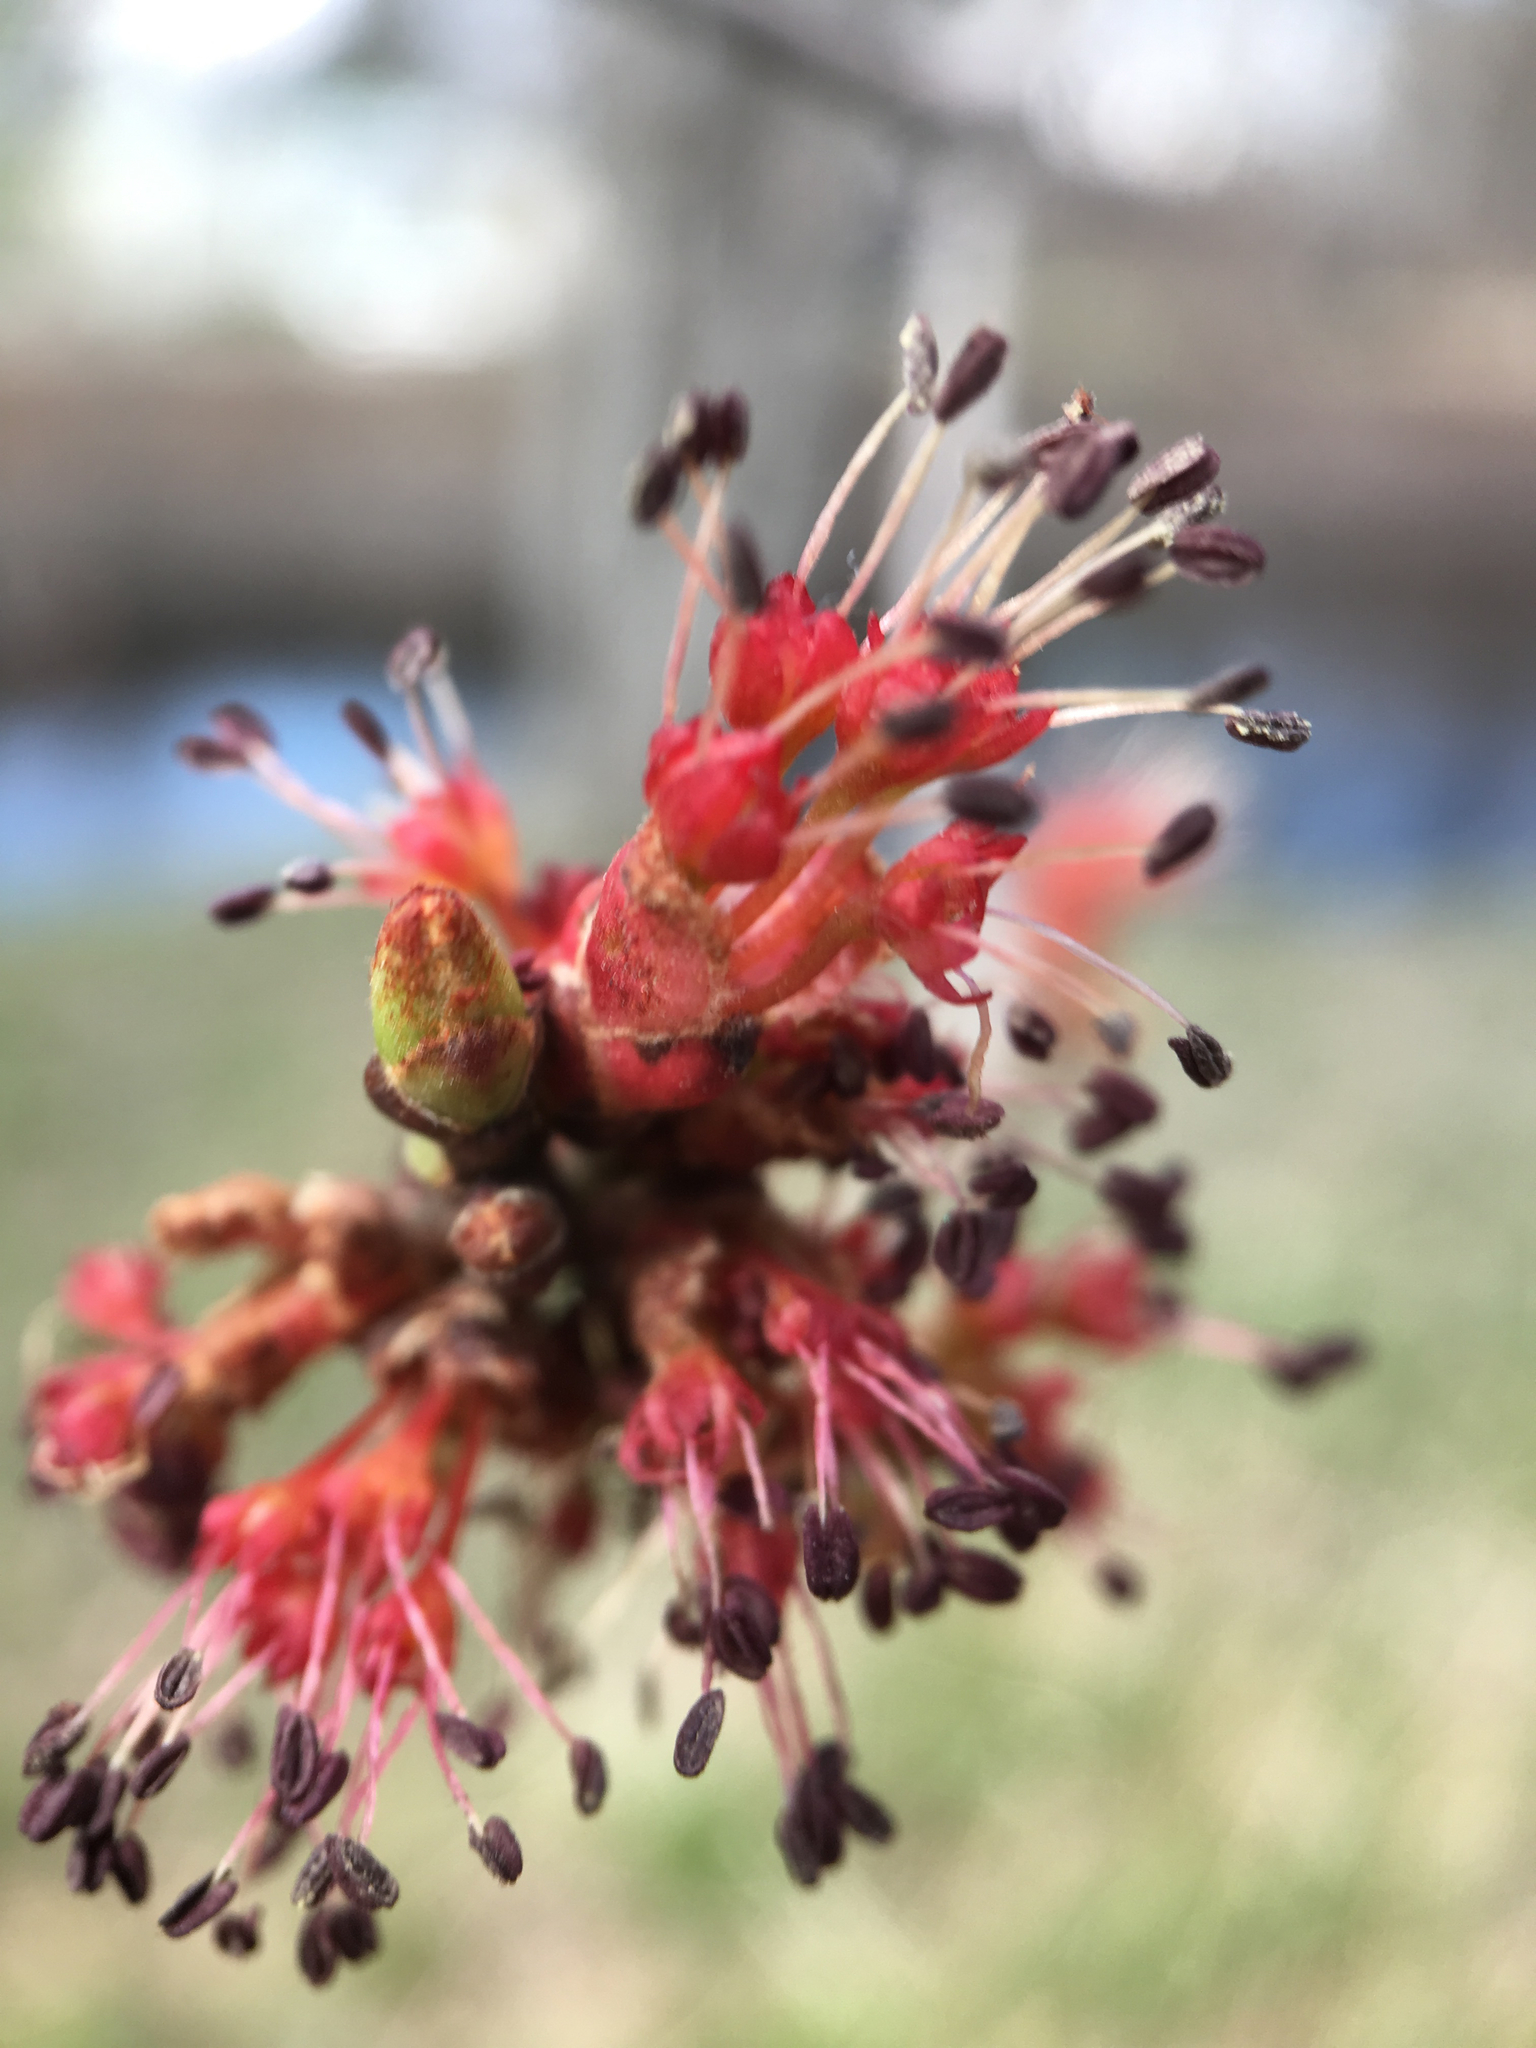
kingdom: Plantae
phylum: Tracheophyta
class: Magnoliopsida
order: Sapindales
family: Sapindaceae
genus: Acer
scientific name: Acer rubrum
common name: Red maple
